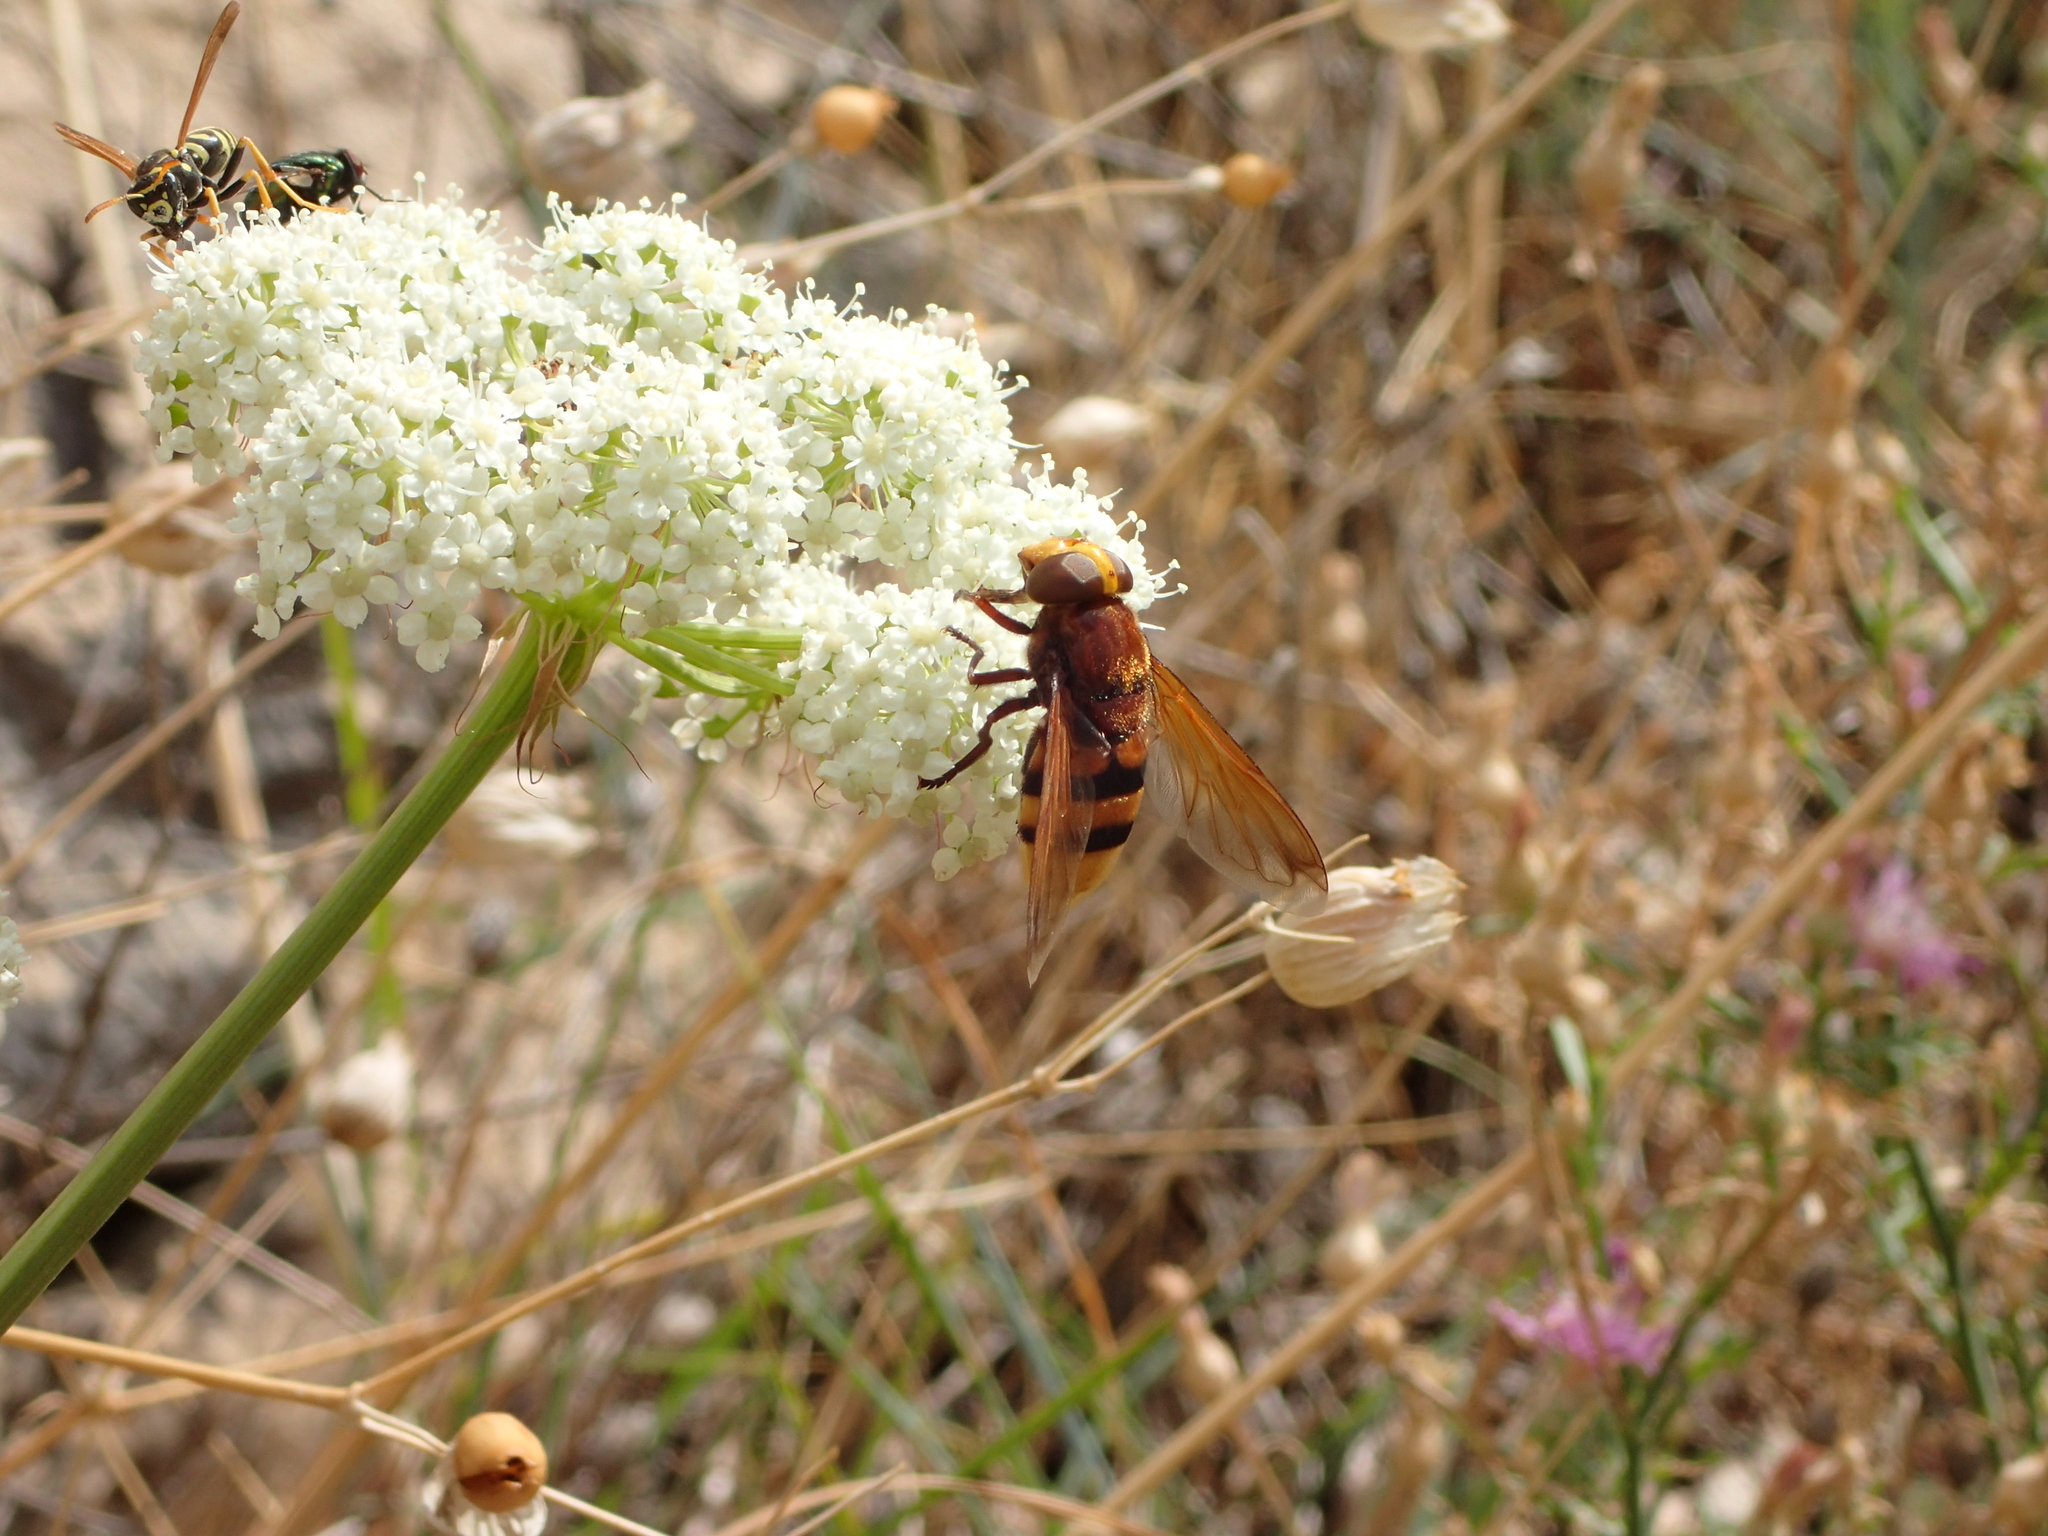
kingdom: Animalia
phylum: Arthropoda
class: Insecta
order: Diptera
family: Syrphidae
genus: Volucella
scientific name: Volucella zonaria
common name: Hornet hoverfly
